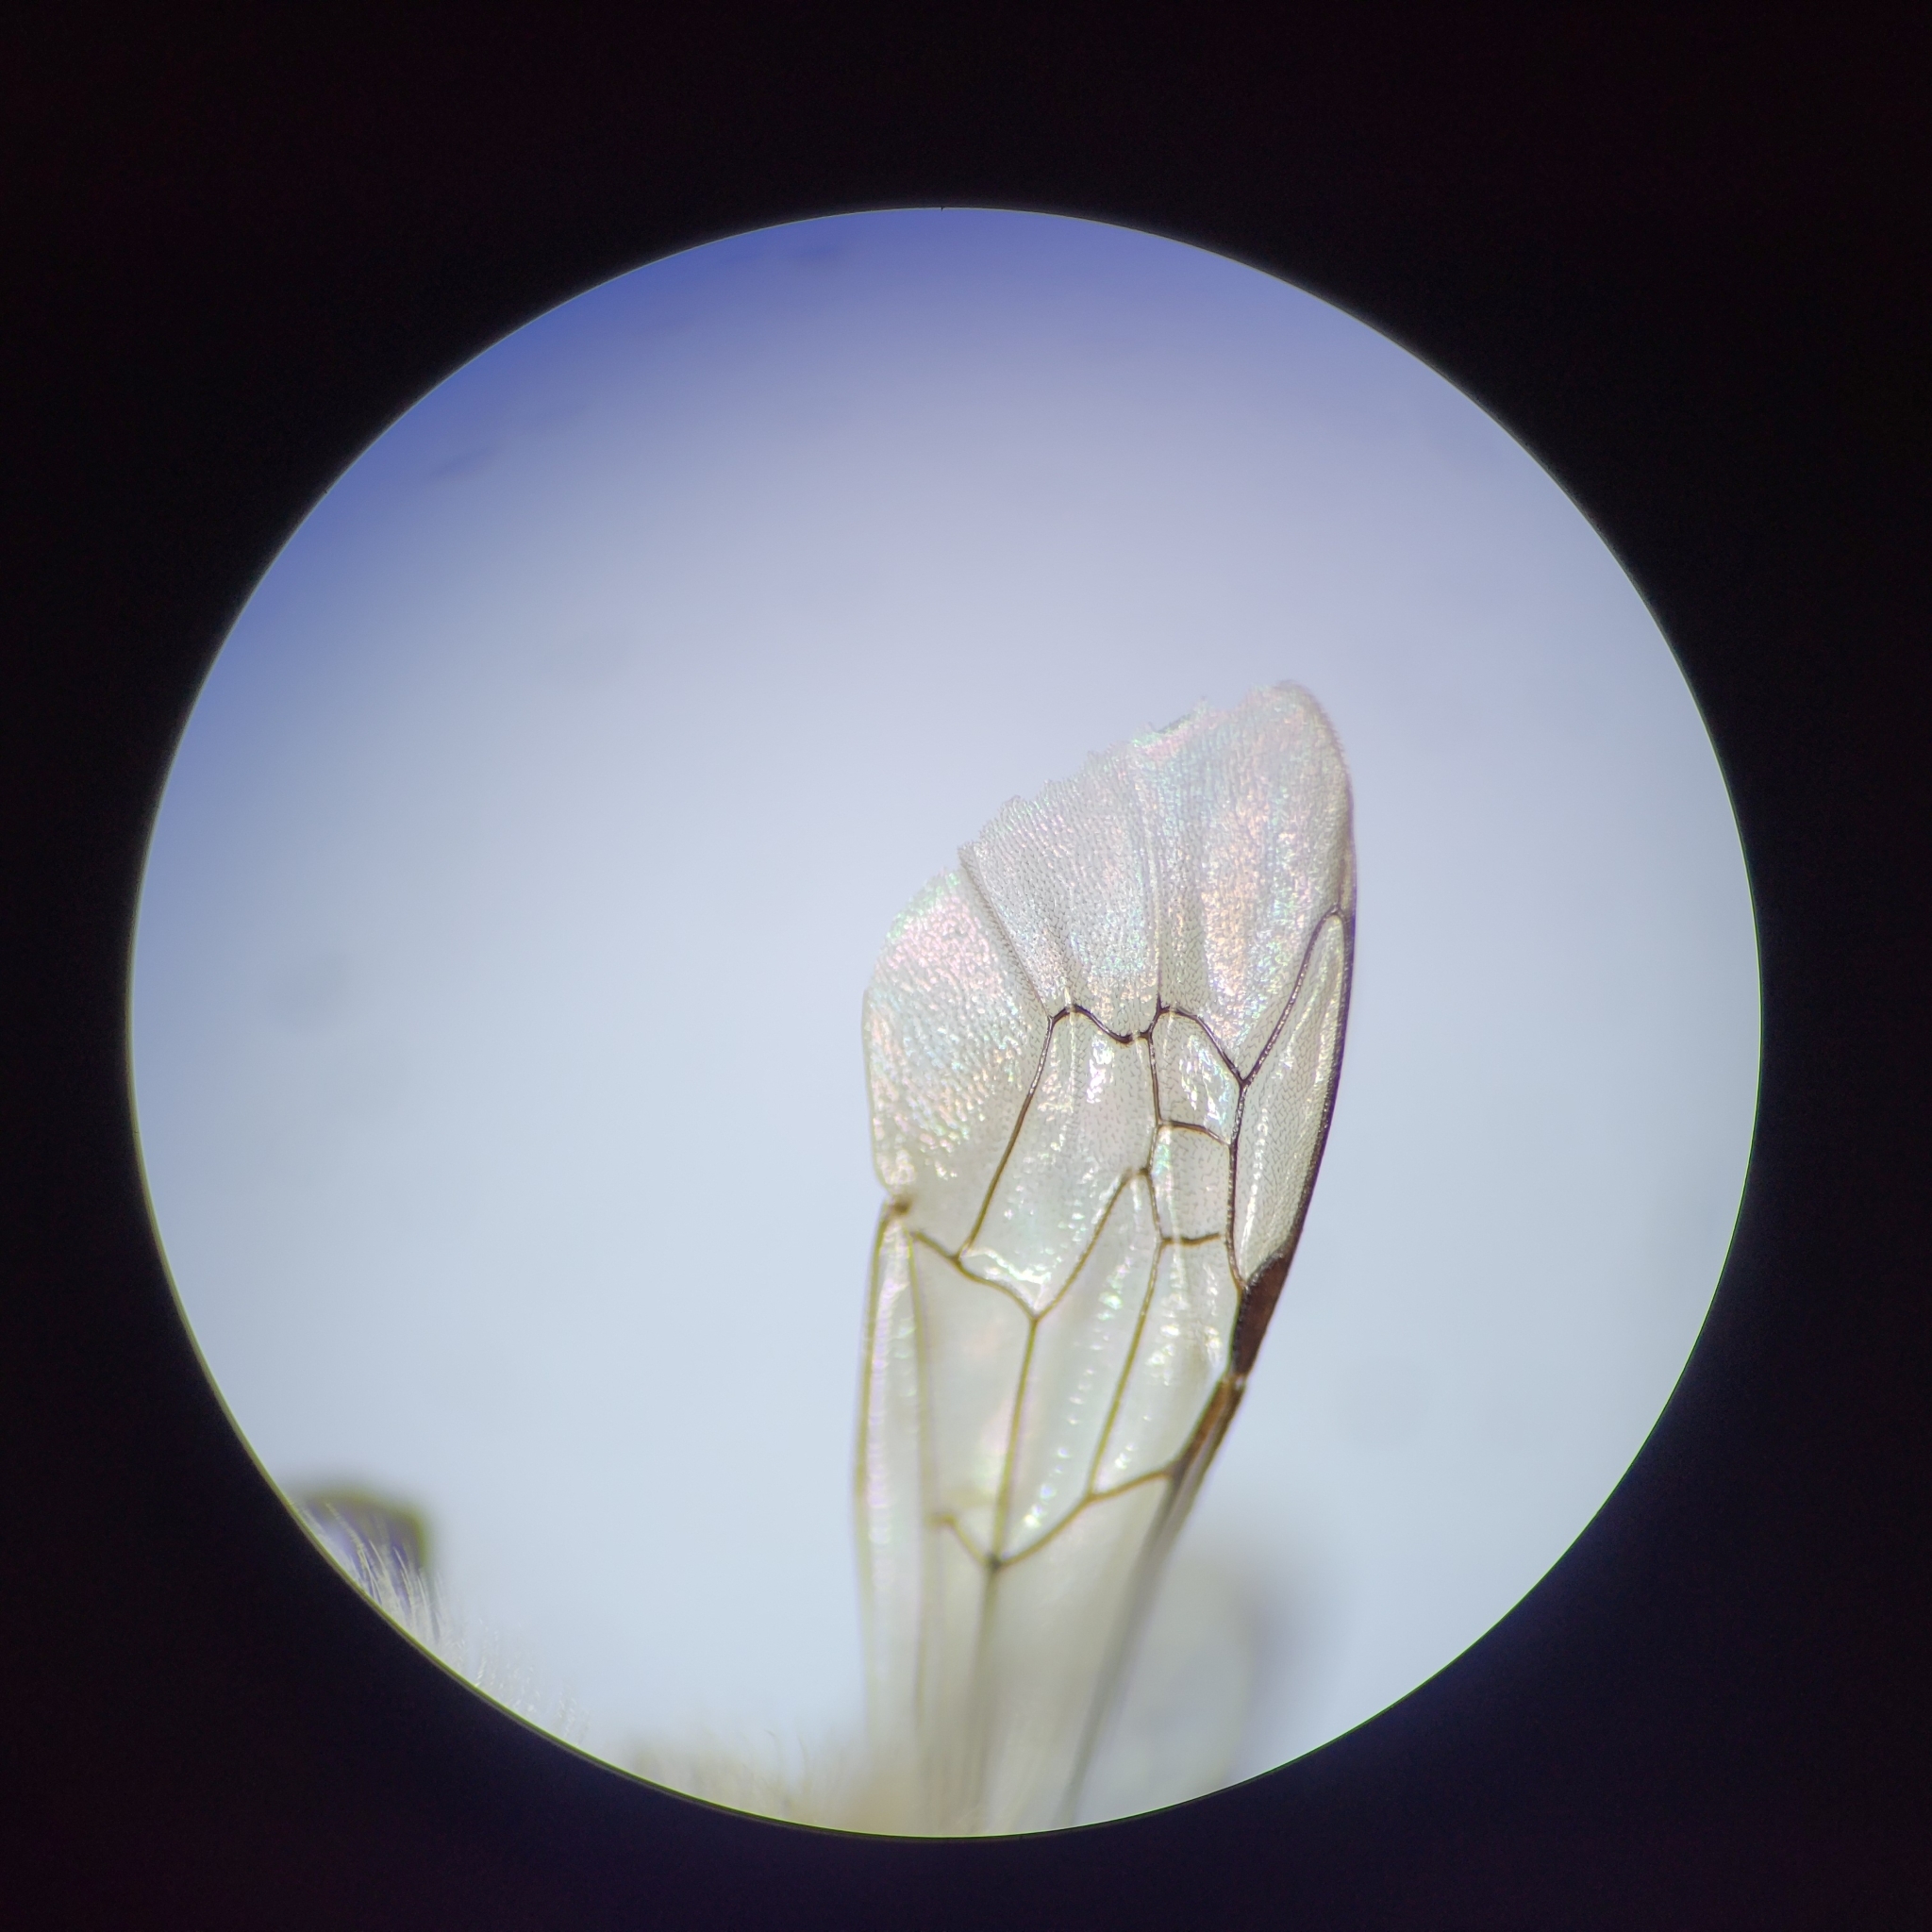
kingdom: Animalia
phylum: Arthropoda
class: Insecta
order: Hymenoptera
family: Colletidae
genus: Colletes
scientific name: Colletes validus
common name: Blueberry cellophane bee
